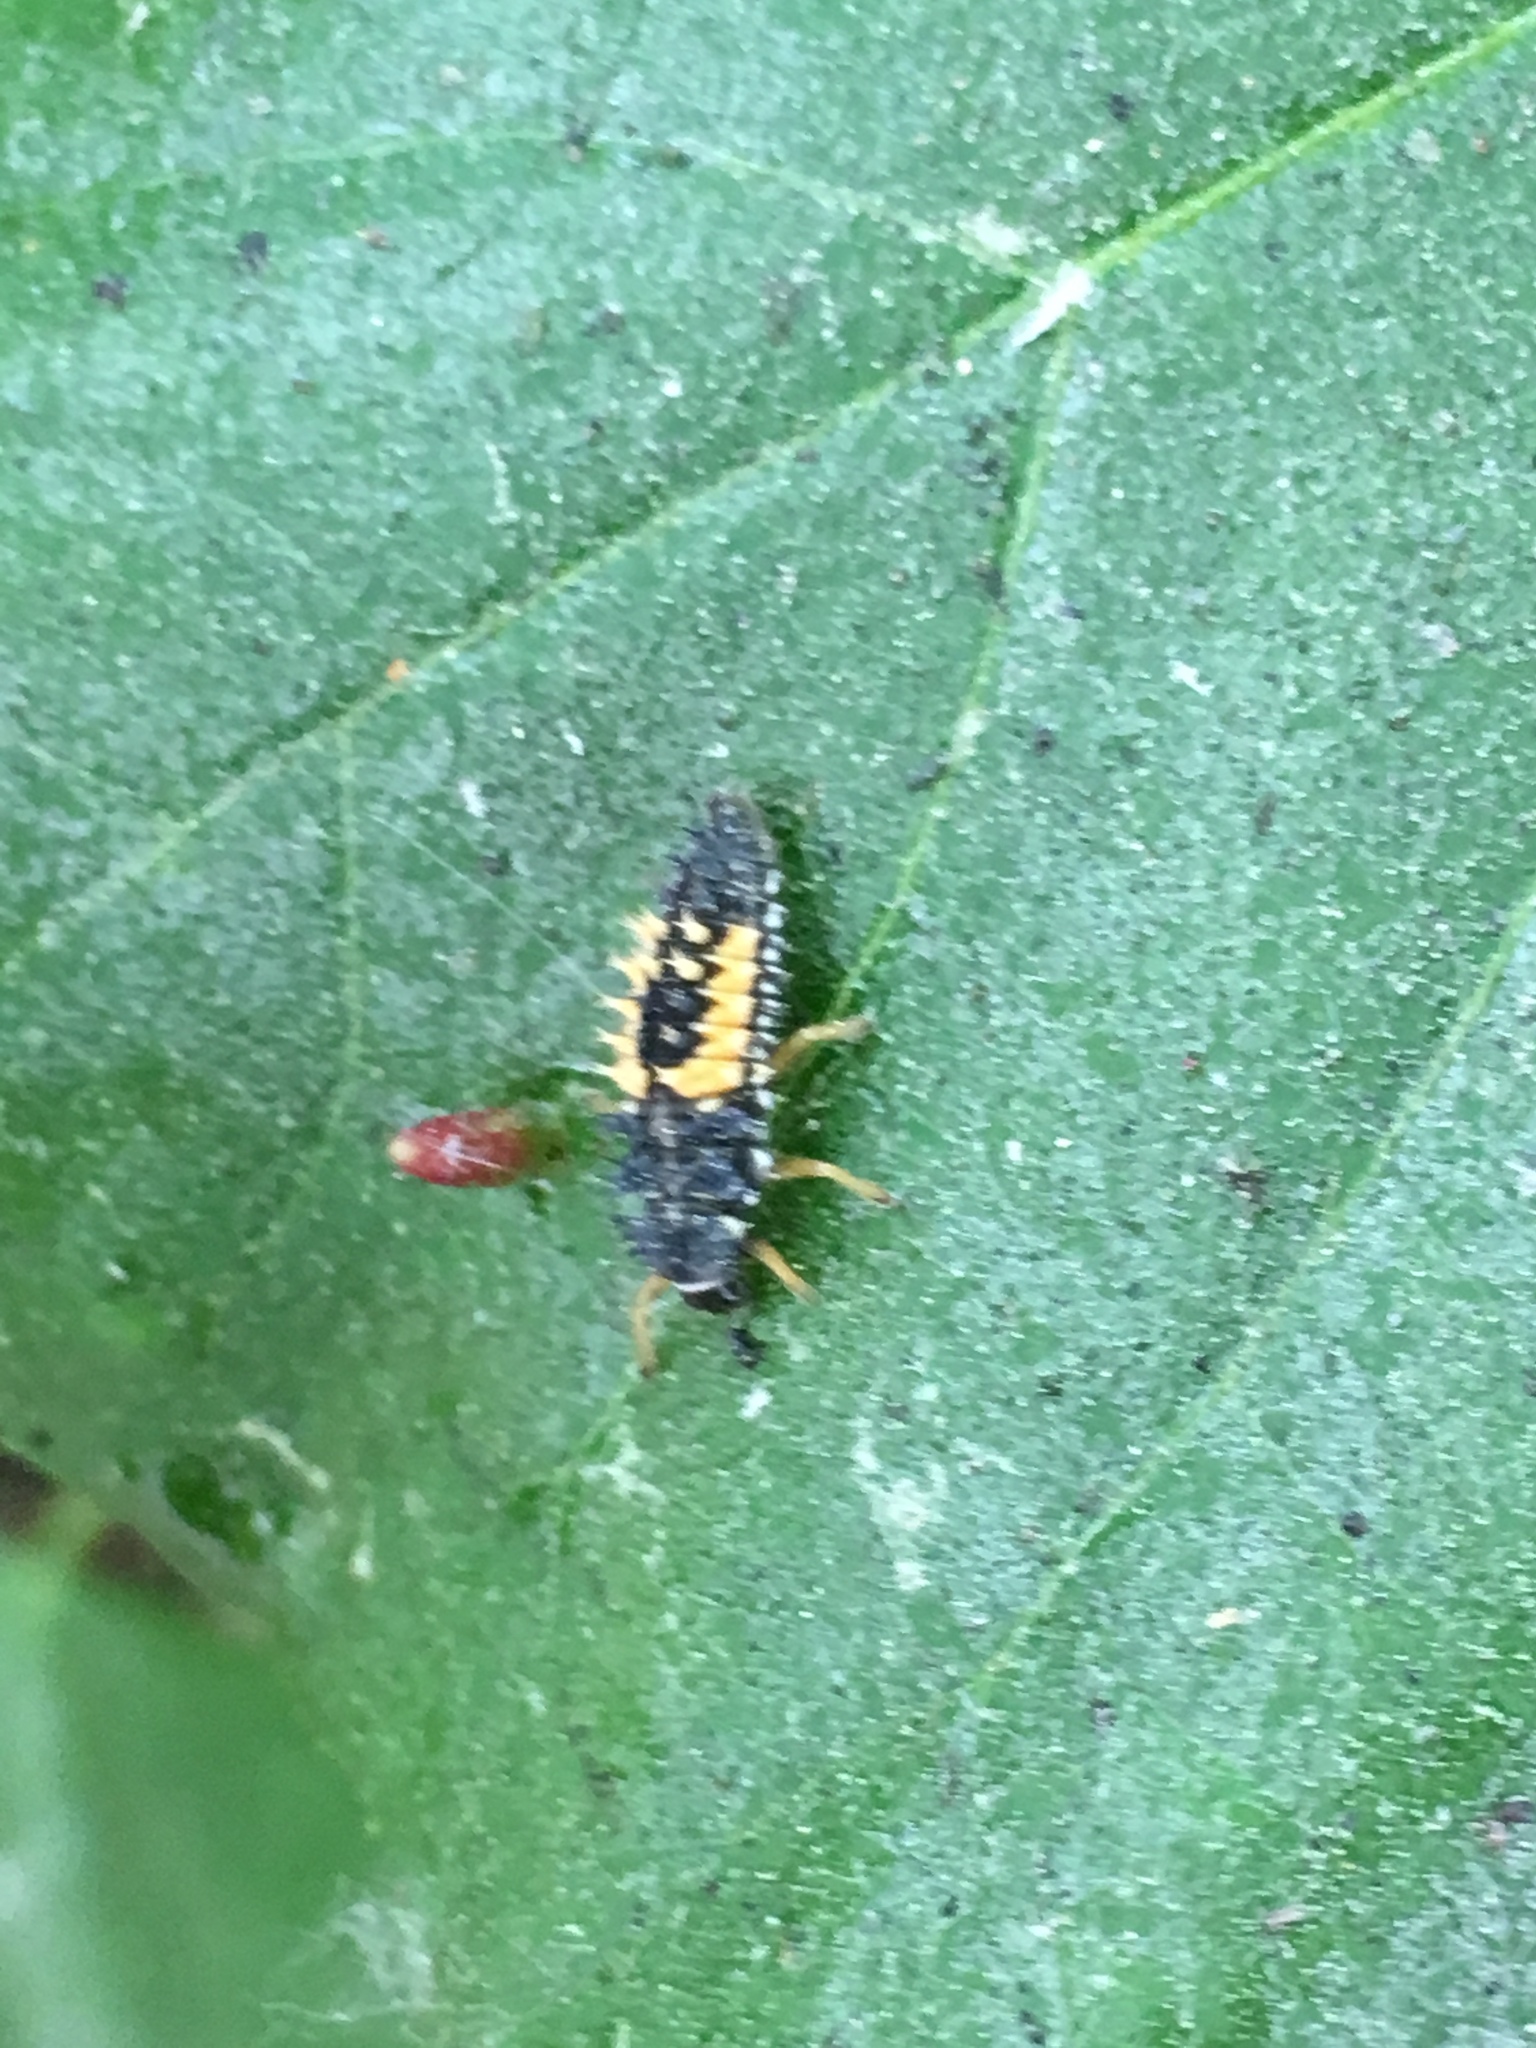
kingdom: Animalia
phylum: Arthropoda
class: Insecta
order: Coleoptera
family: Coccinellidae
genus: Harmonia
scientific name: Harmonia axyridis
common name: Harlequin ladybird
